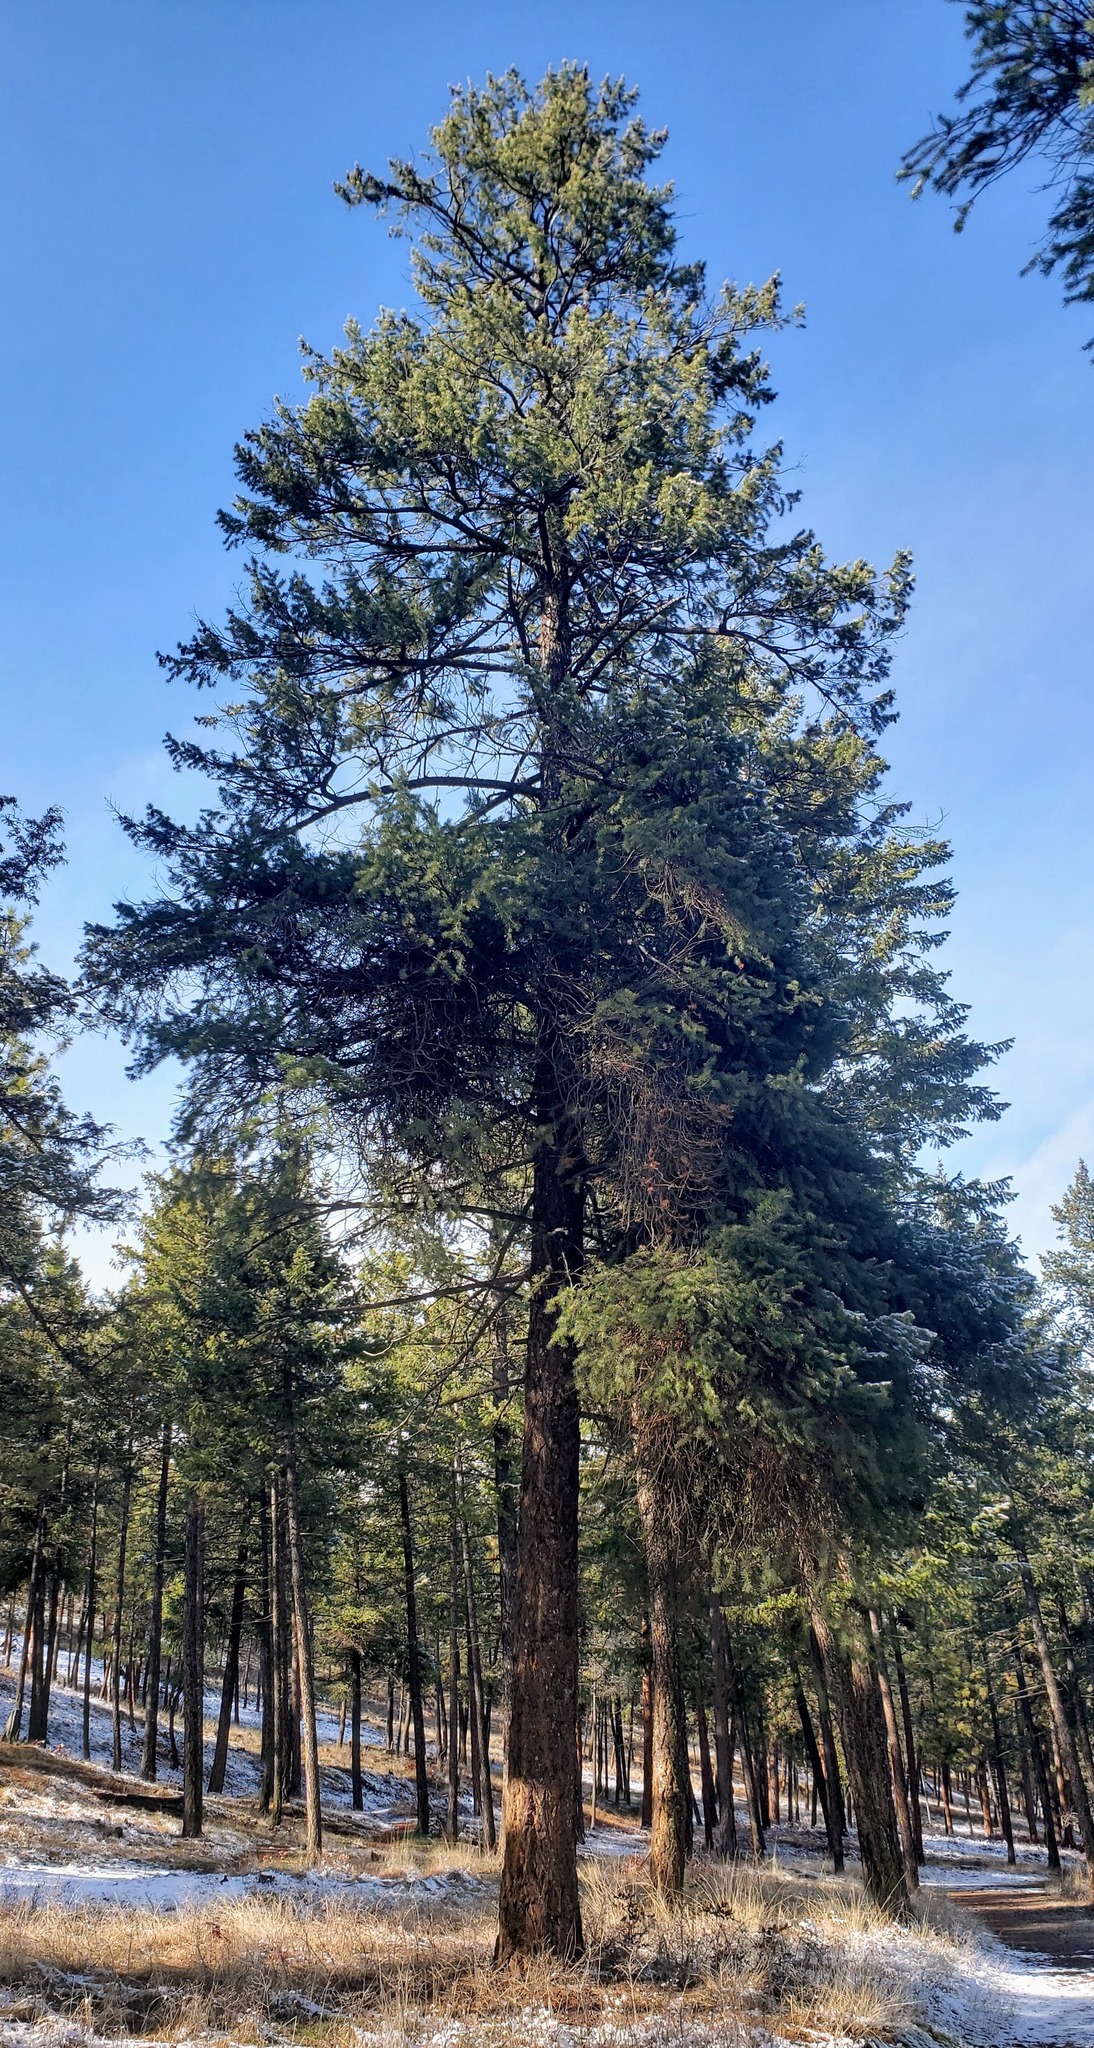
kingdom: Plantae
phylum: Tracheophyta
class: Pinopsida
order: Pinales
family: Pinaceae
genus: Pseudotsuga
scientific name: Pseudotsuga menziesii
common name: Douglas fir
